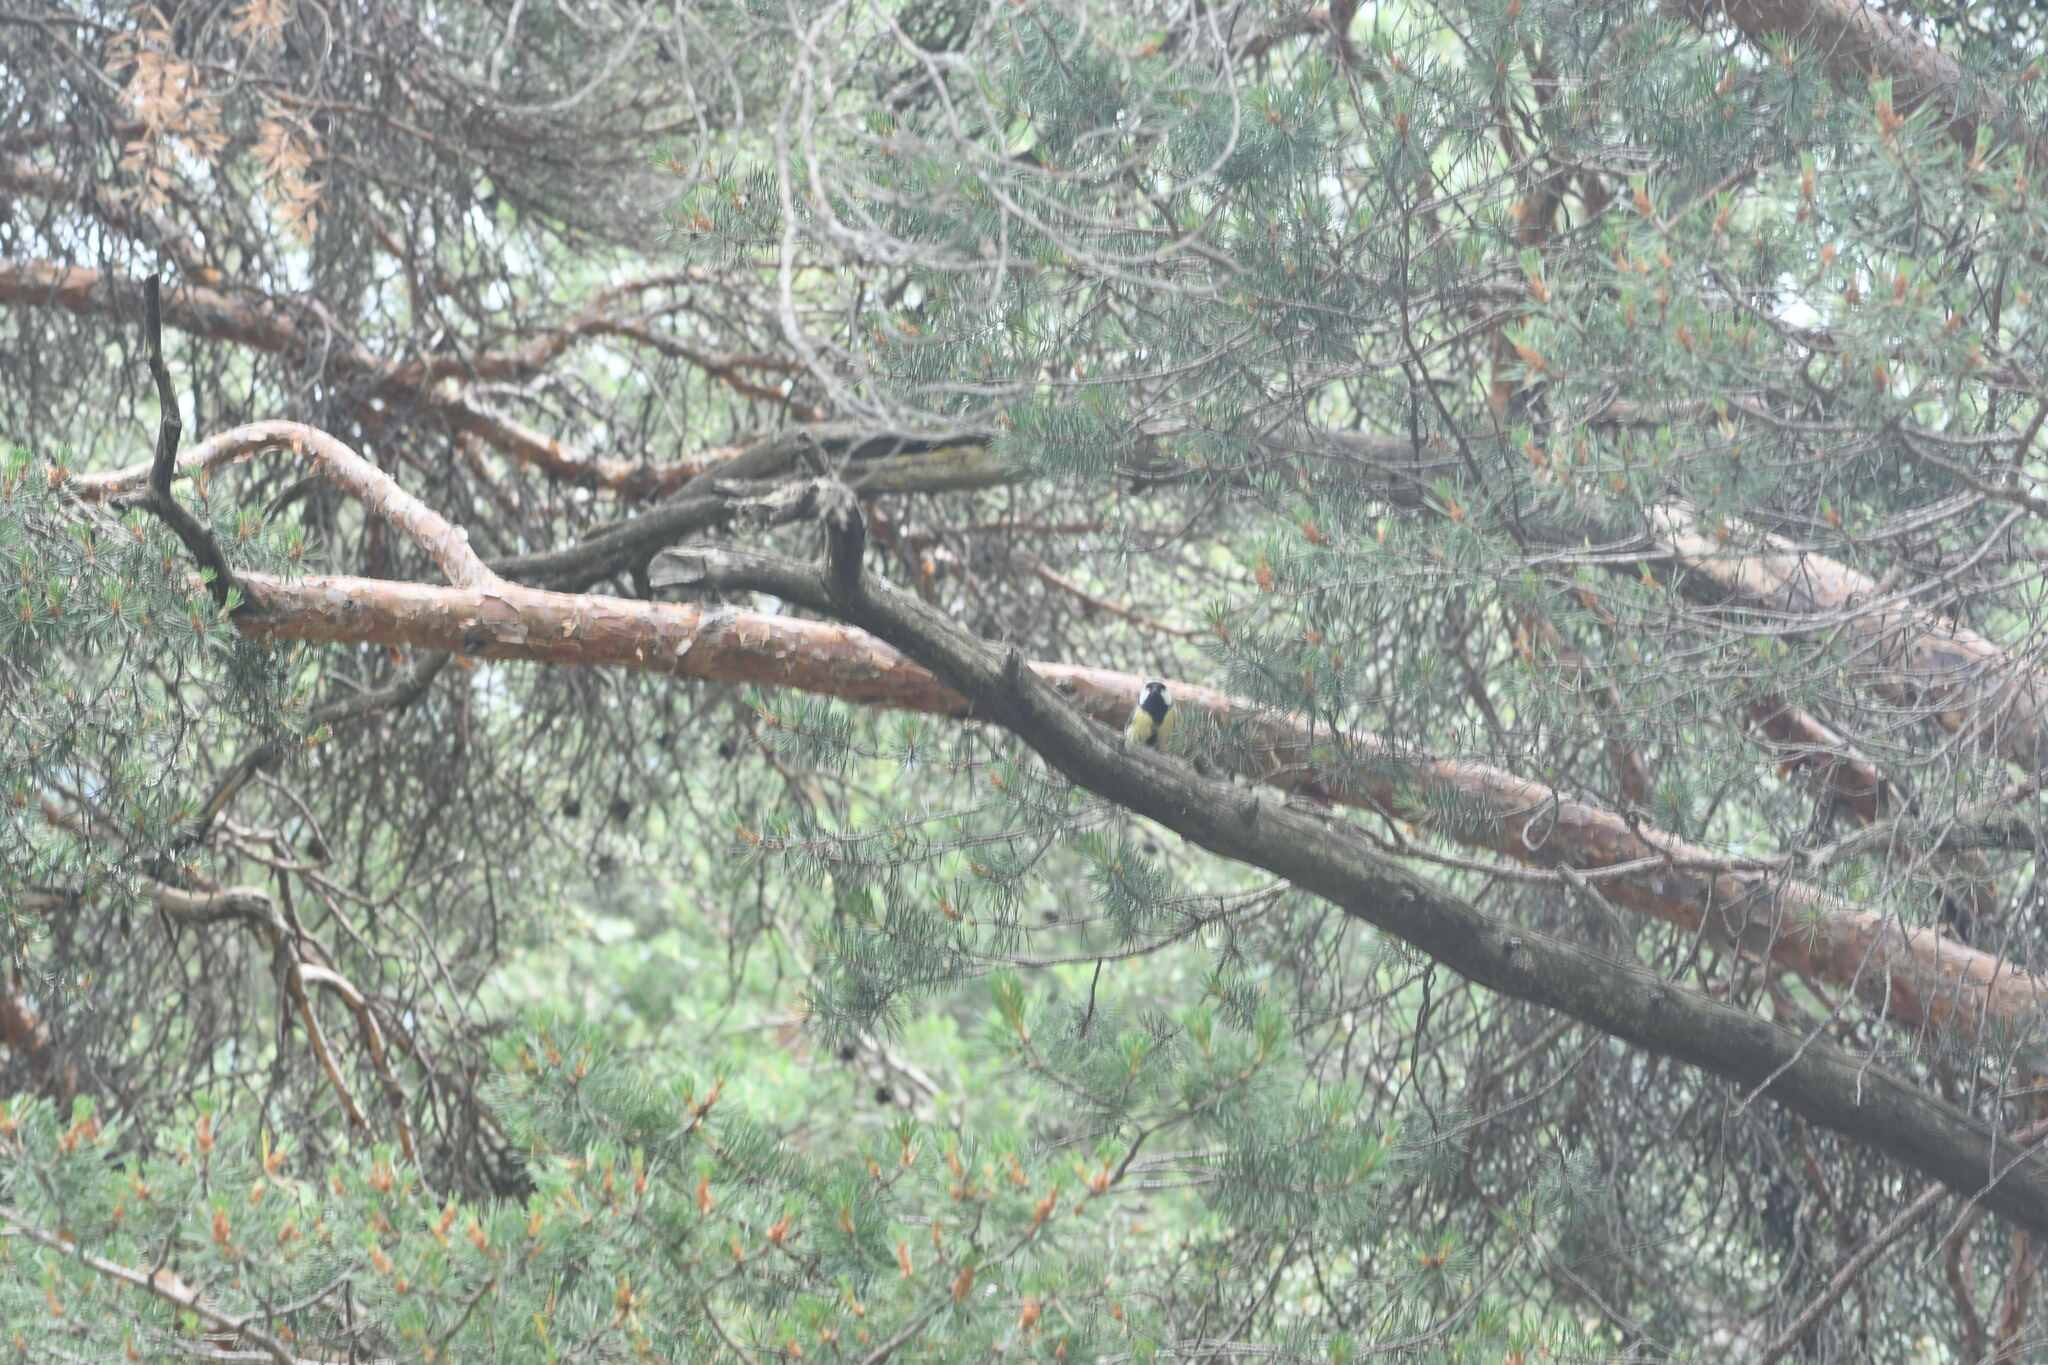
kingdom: Animalia
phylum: Chordata
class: Aves
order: Passeriformes
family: Paridae
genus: Parus
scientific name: Parus major
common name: Great tit
